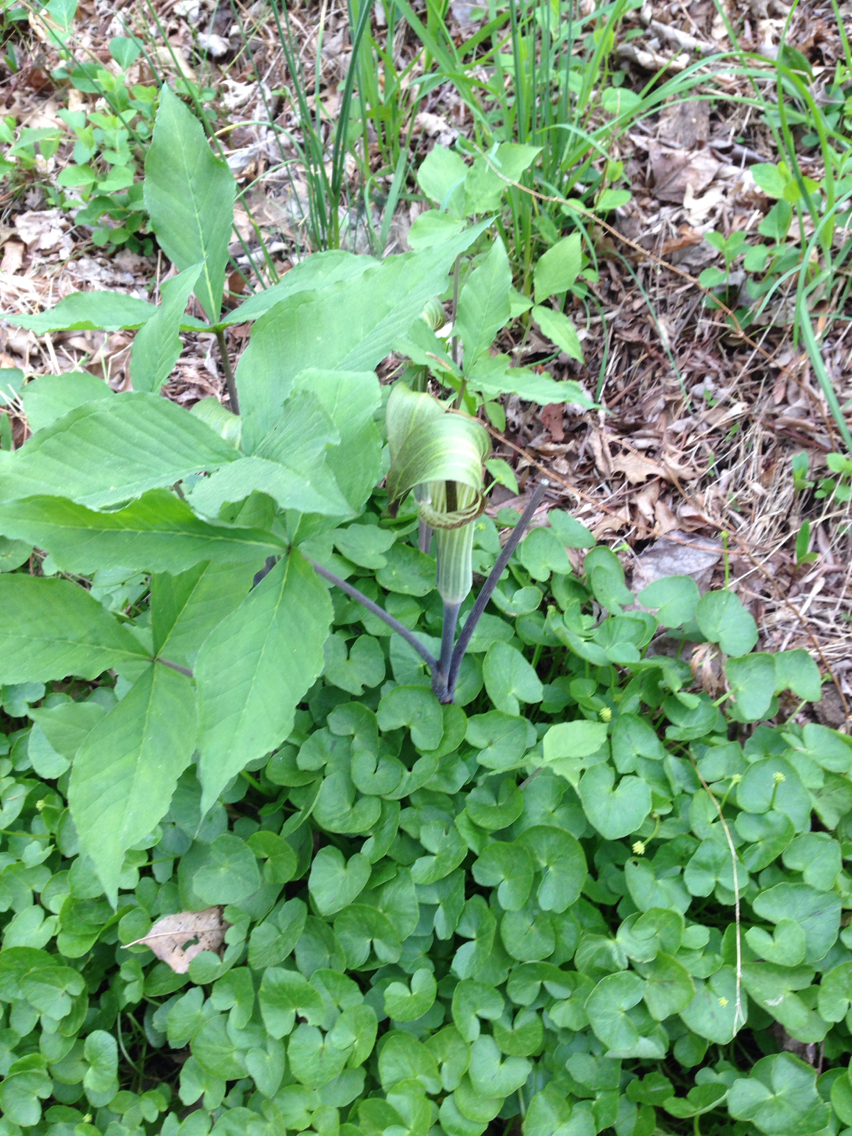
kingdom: Plantae
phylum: Tracheophyta
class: Liliopsida
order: Alismatales
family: Araceae
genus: Arisaema
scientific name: Arisaema triphyllum
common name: Jack-in-the-pulpit
